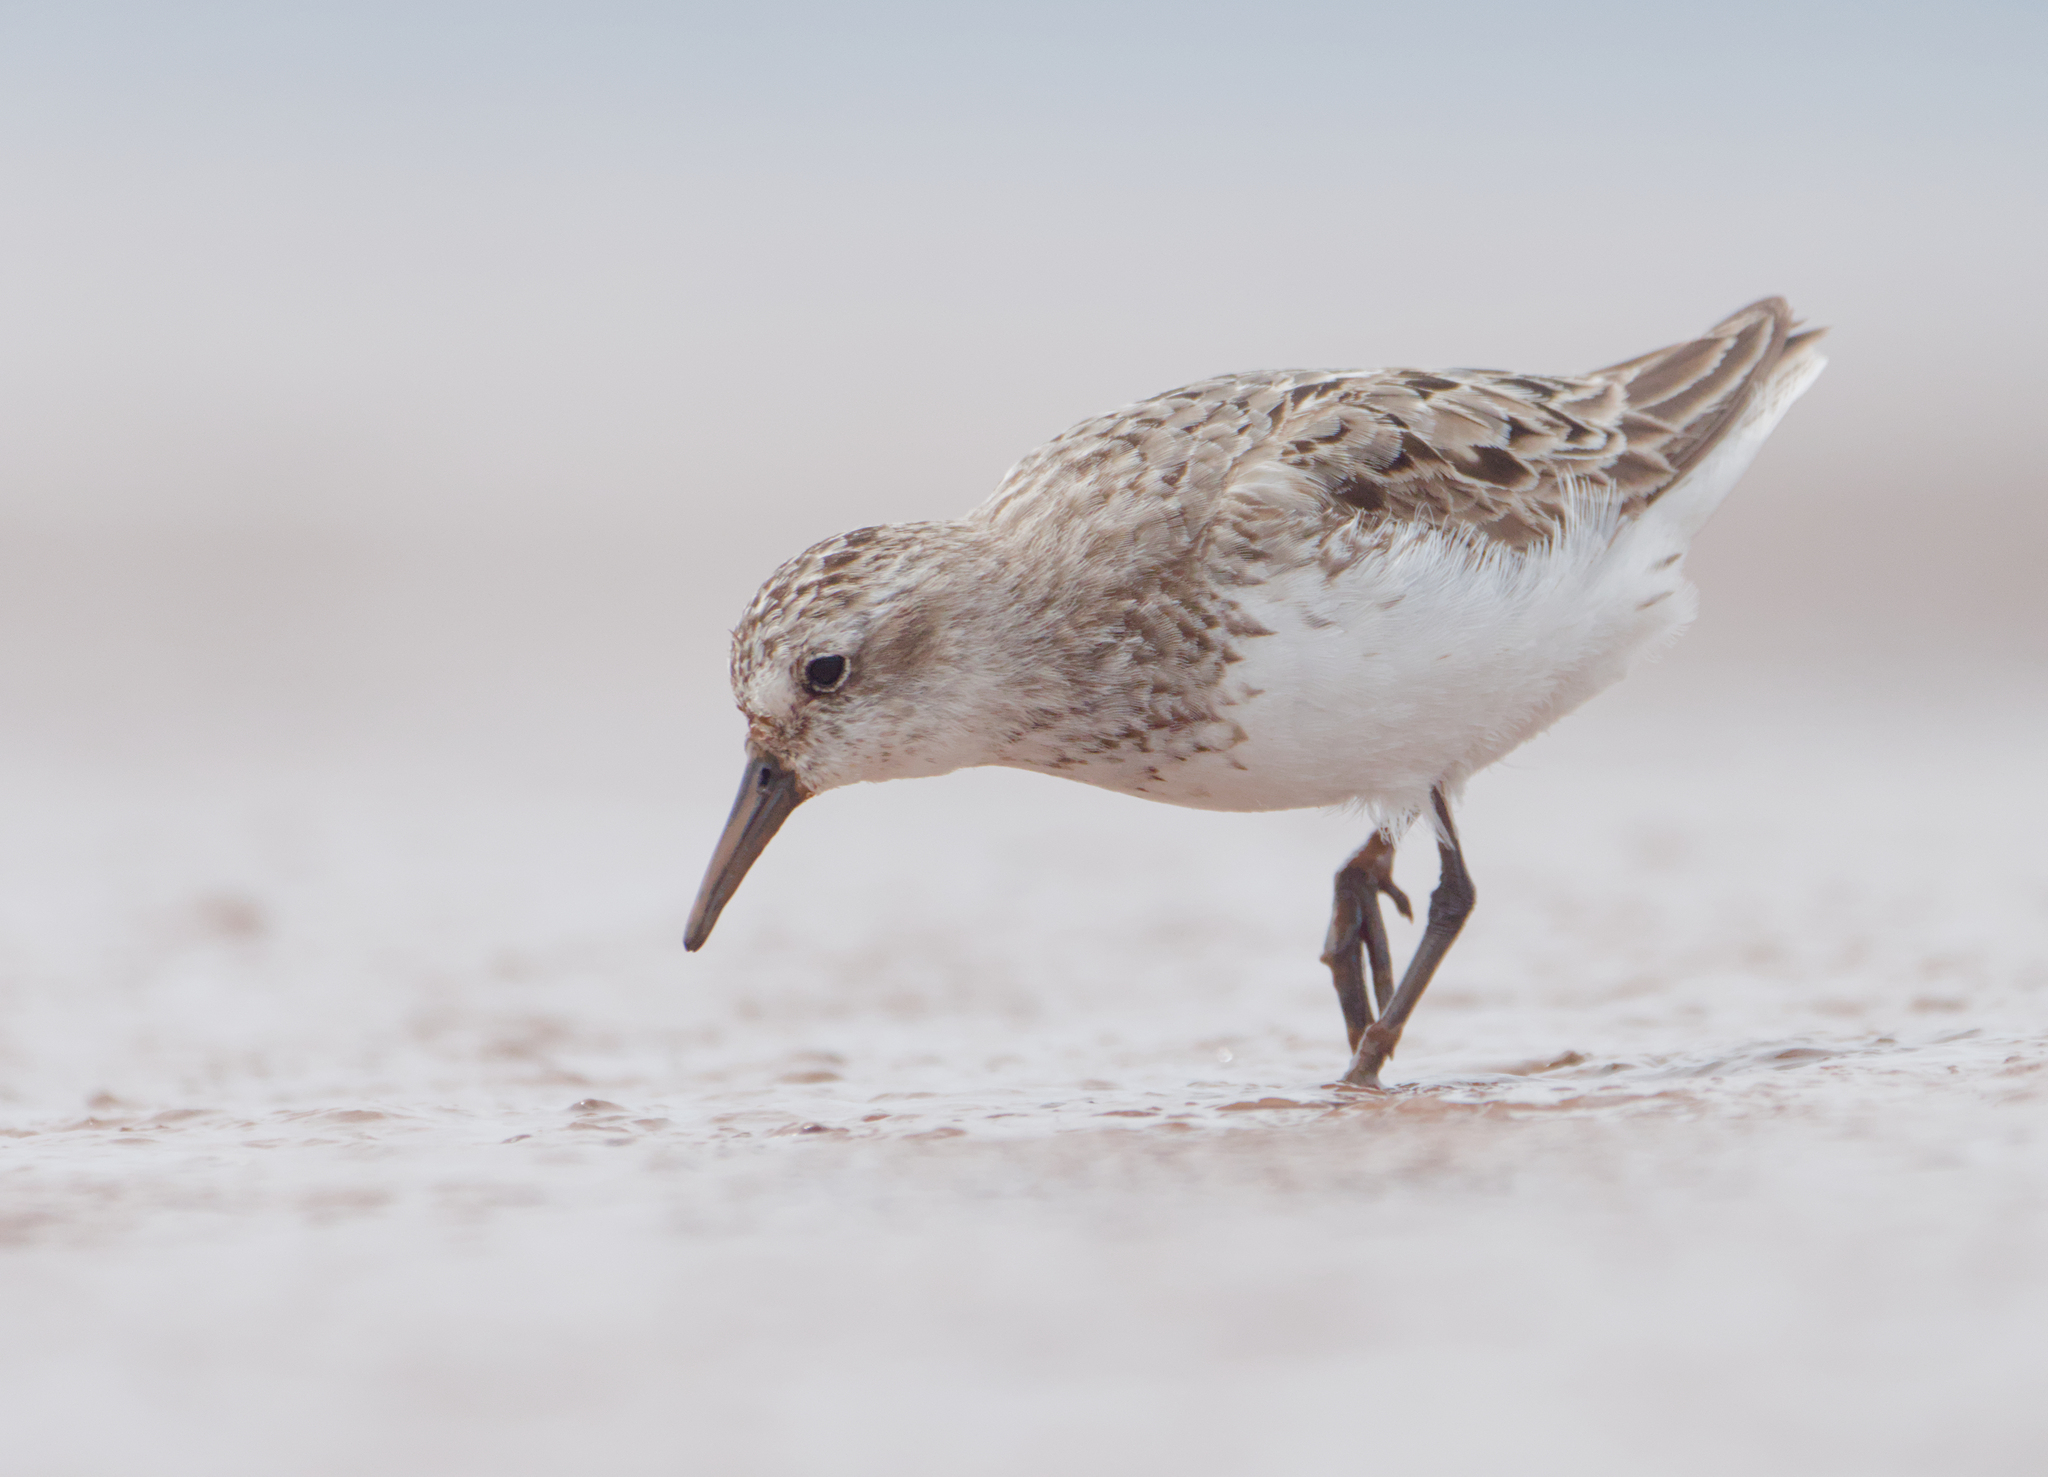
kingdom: Animalia
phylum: Chordata
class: Aves
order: Charadriiformes
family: Scolopacidae
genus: Calidris
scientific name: Calidris pusilla
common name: Semipalmated sandpiper
